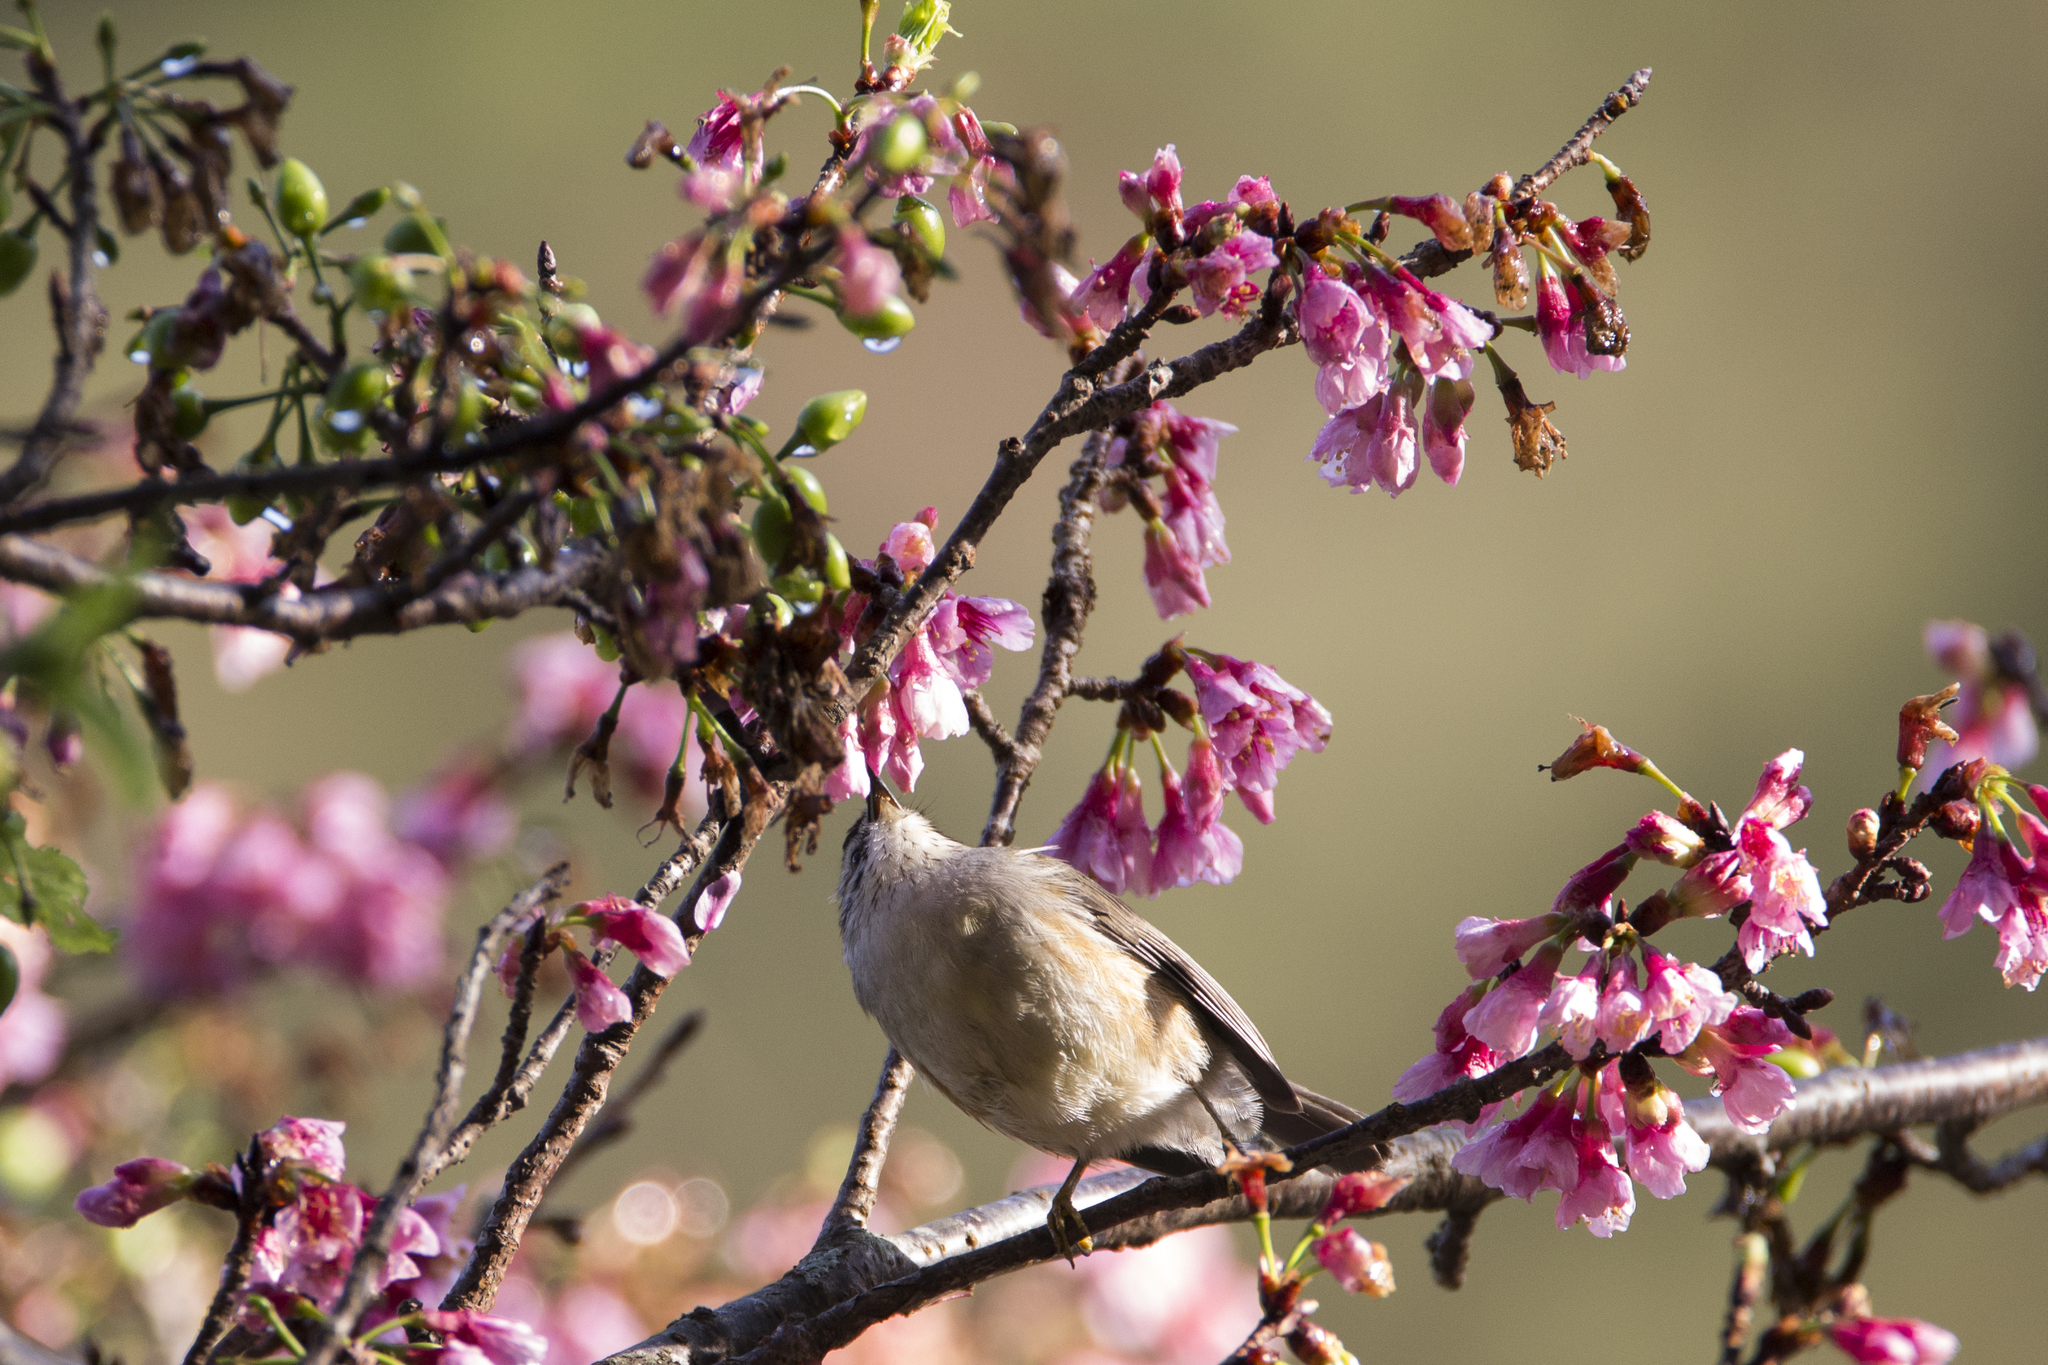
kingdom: Animalia
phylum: Chordata
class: Aves
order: Passeriformes
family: Zosteropidae
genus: Yuhina
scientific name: Yuhina brunneiceps
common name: Taiwan yuhina
